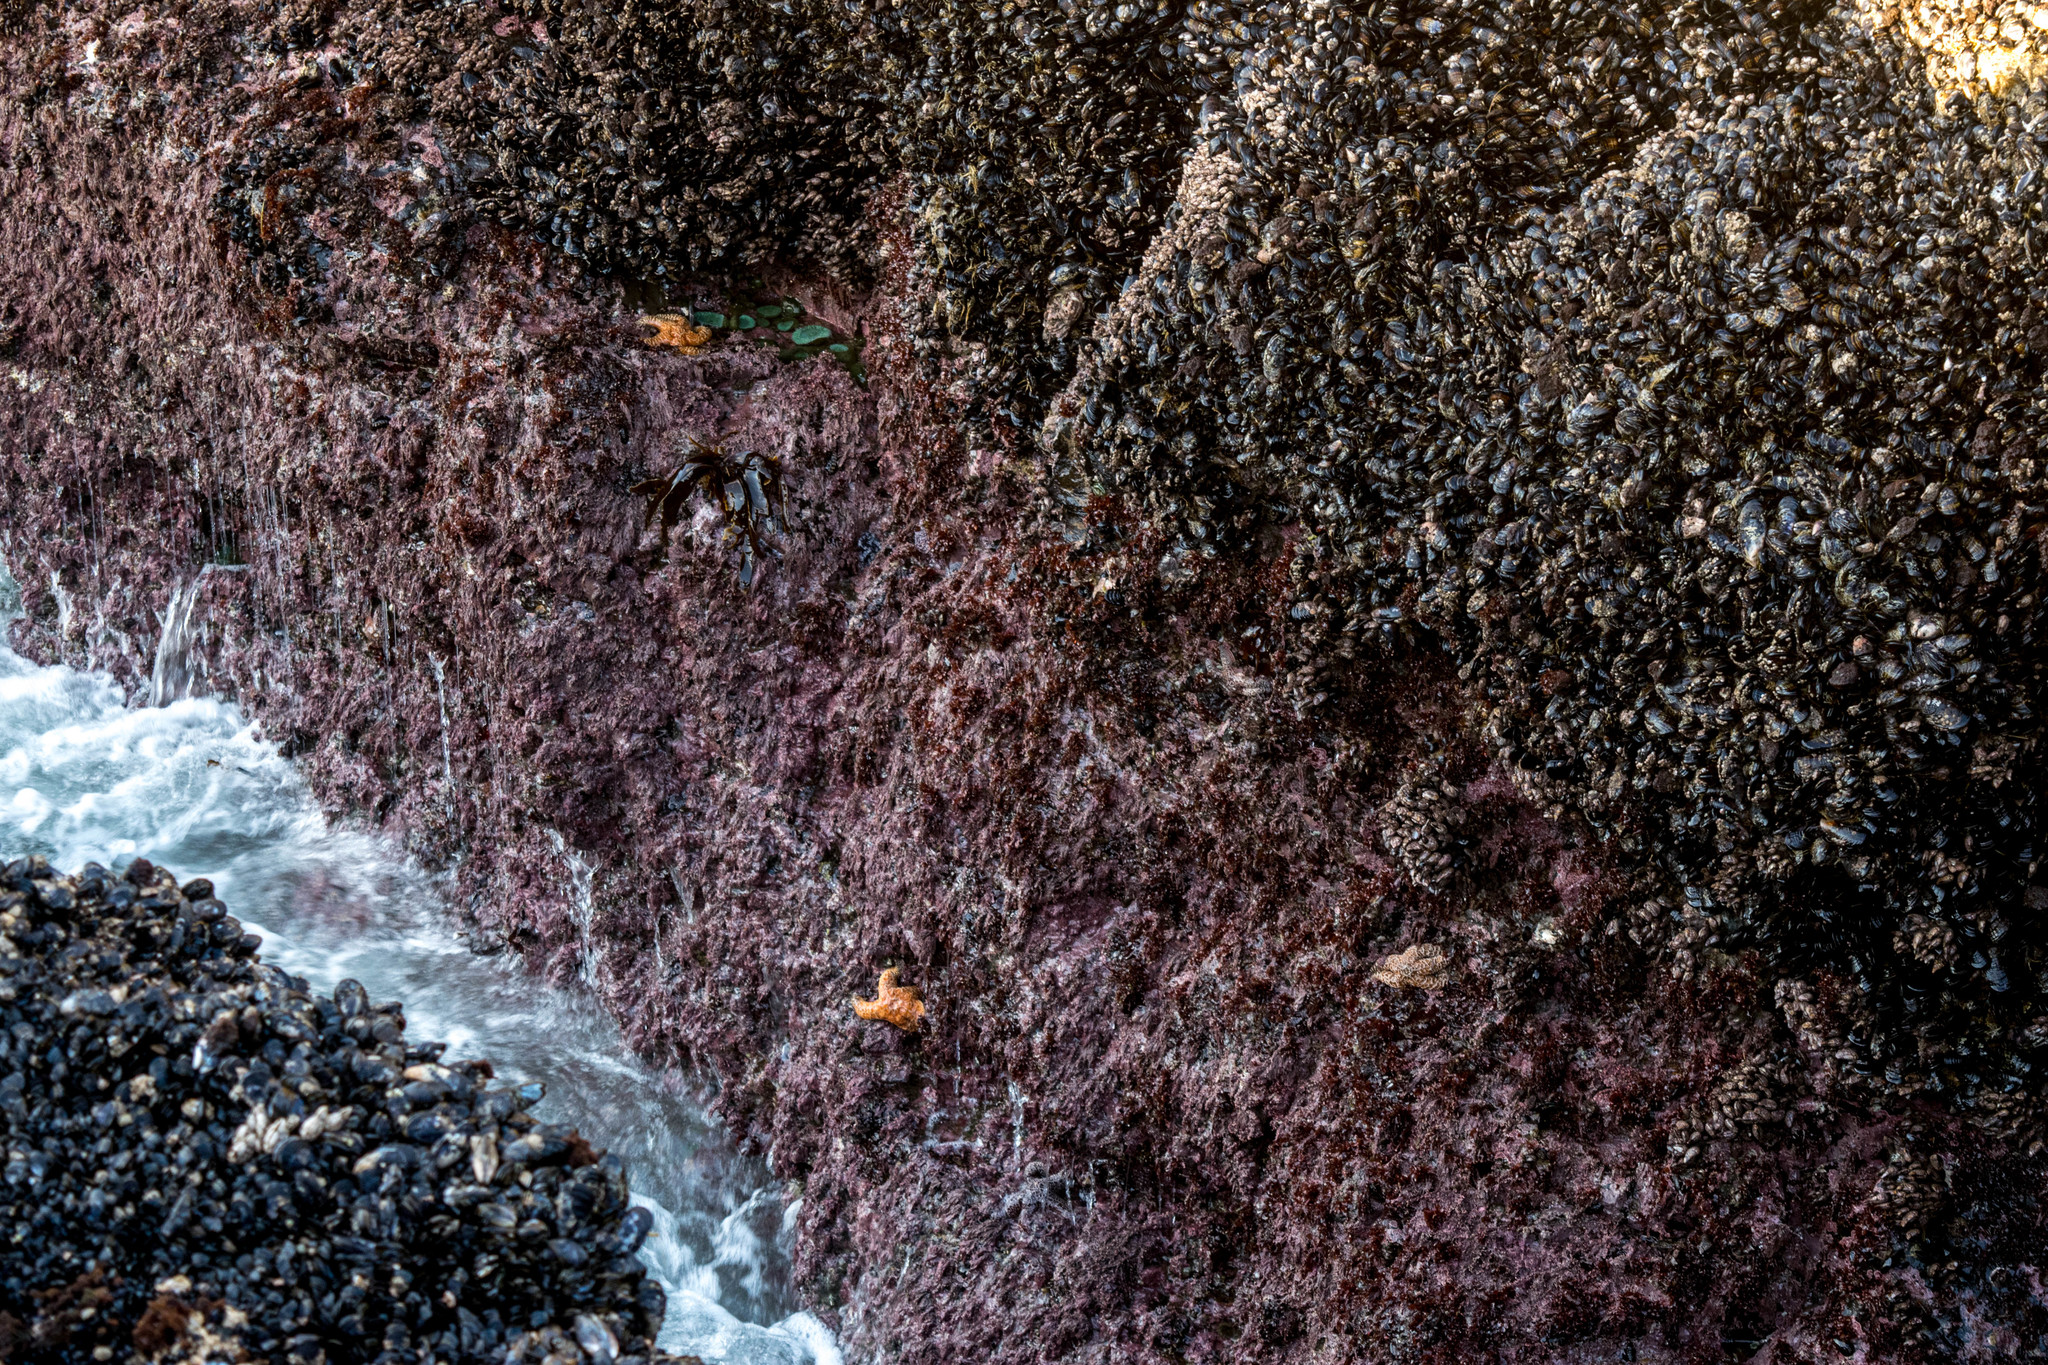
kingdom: Animalia
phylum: Echinodermata
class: Asteroidea
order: Forcipulatida
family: Asteriidae
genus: Pisaster
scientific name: Pisaster ochraceus
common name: Ochre stars
